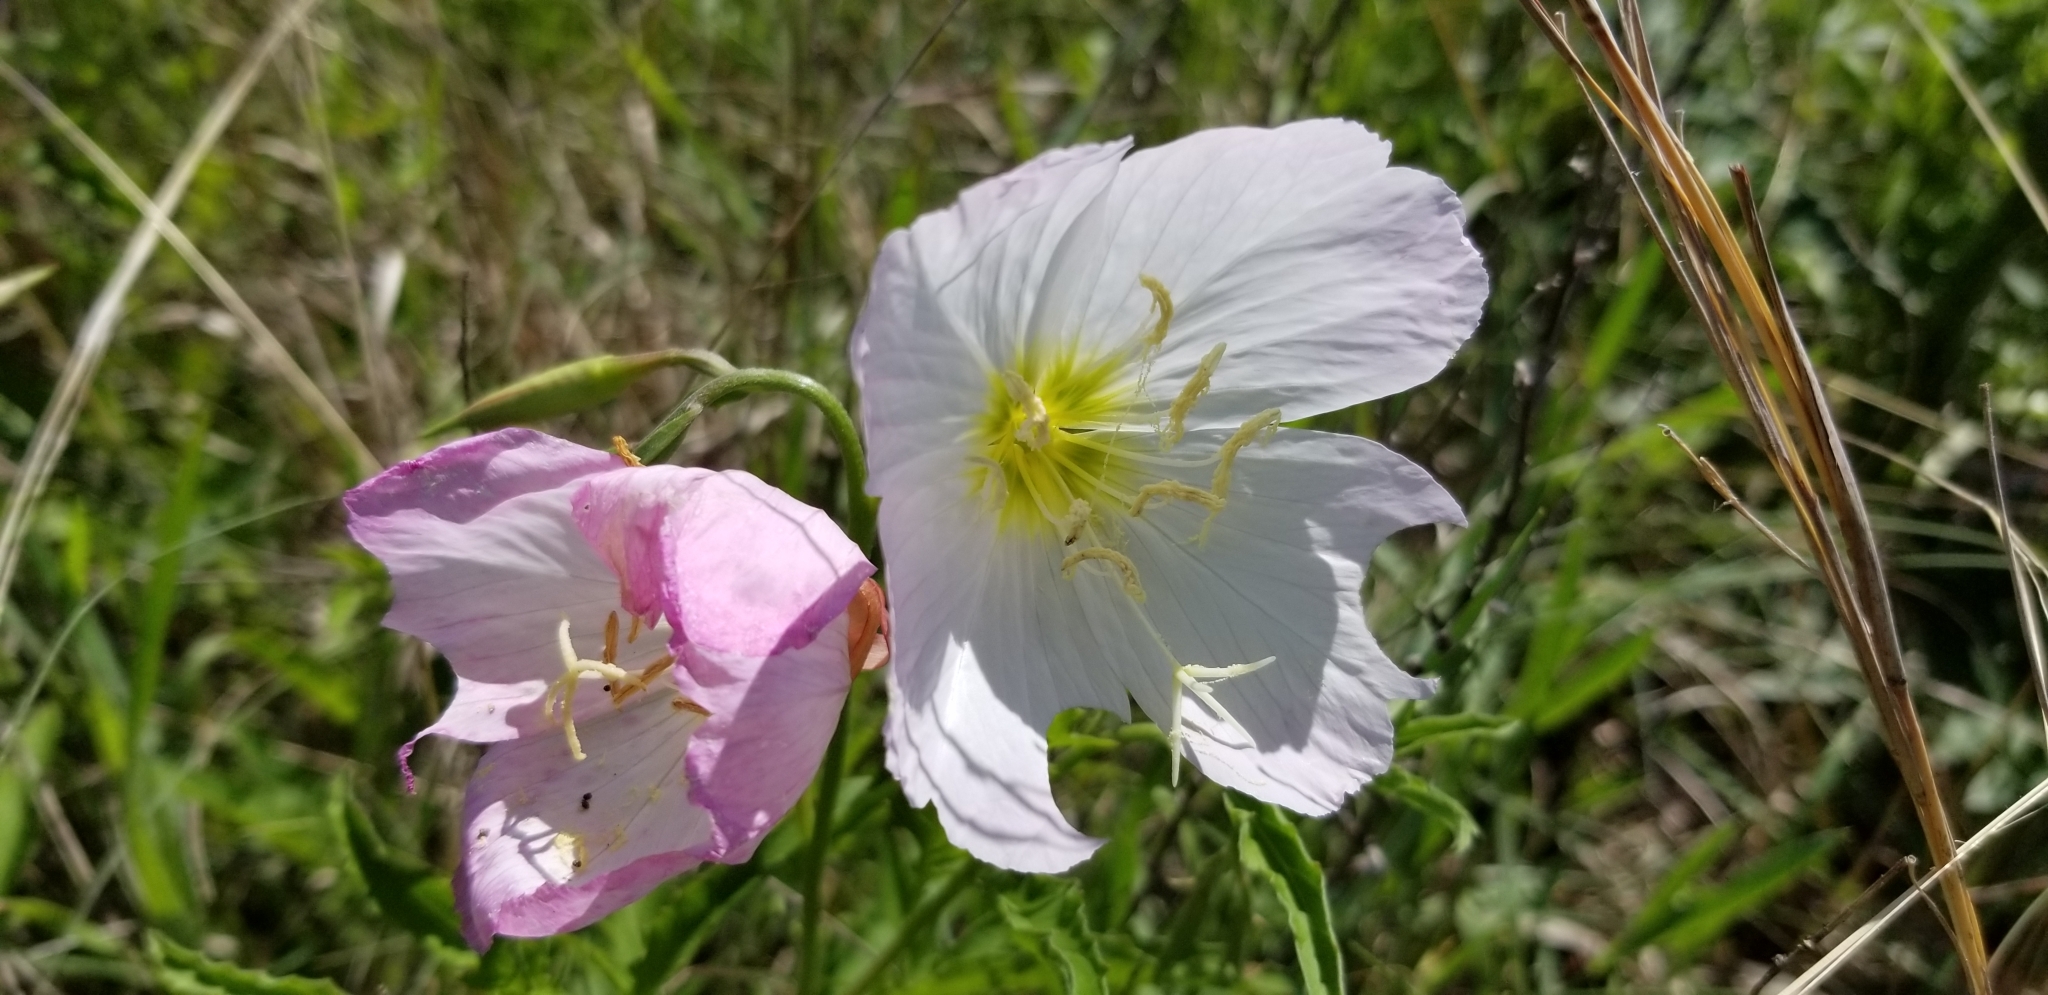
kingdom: Plantae
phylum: Tracheophyta
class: Magnoliopsida
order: Myrtales
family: Onagraceae
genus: Oenothera
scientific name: Oenothera speciosa
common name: White evening-primrose
